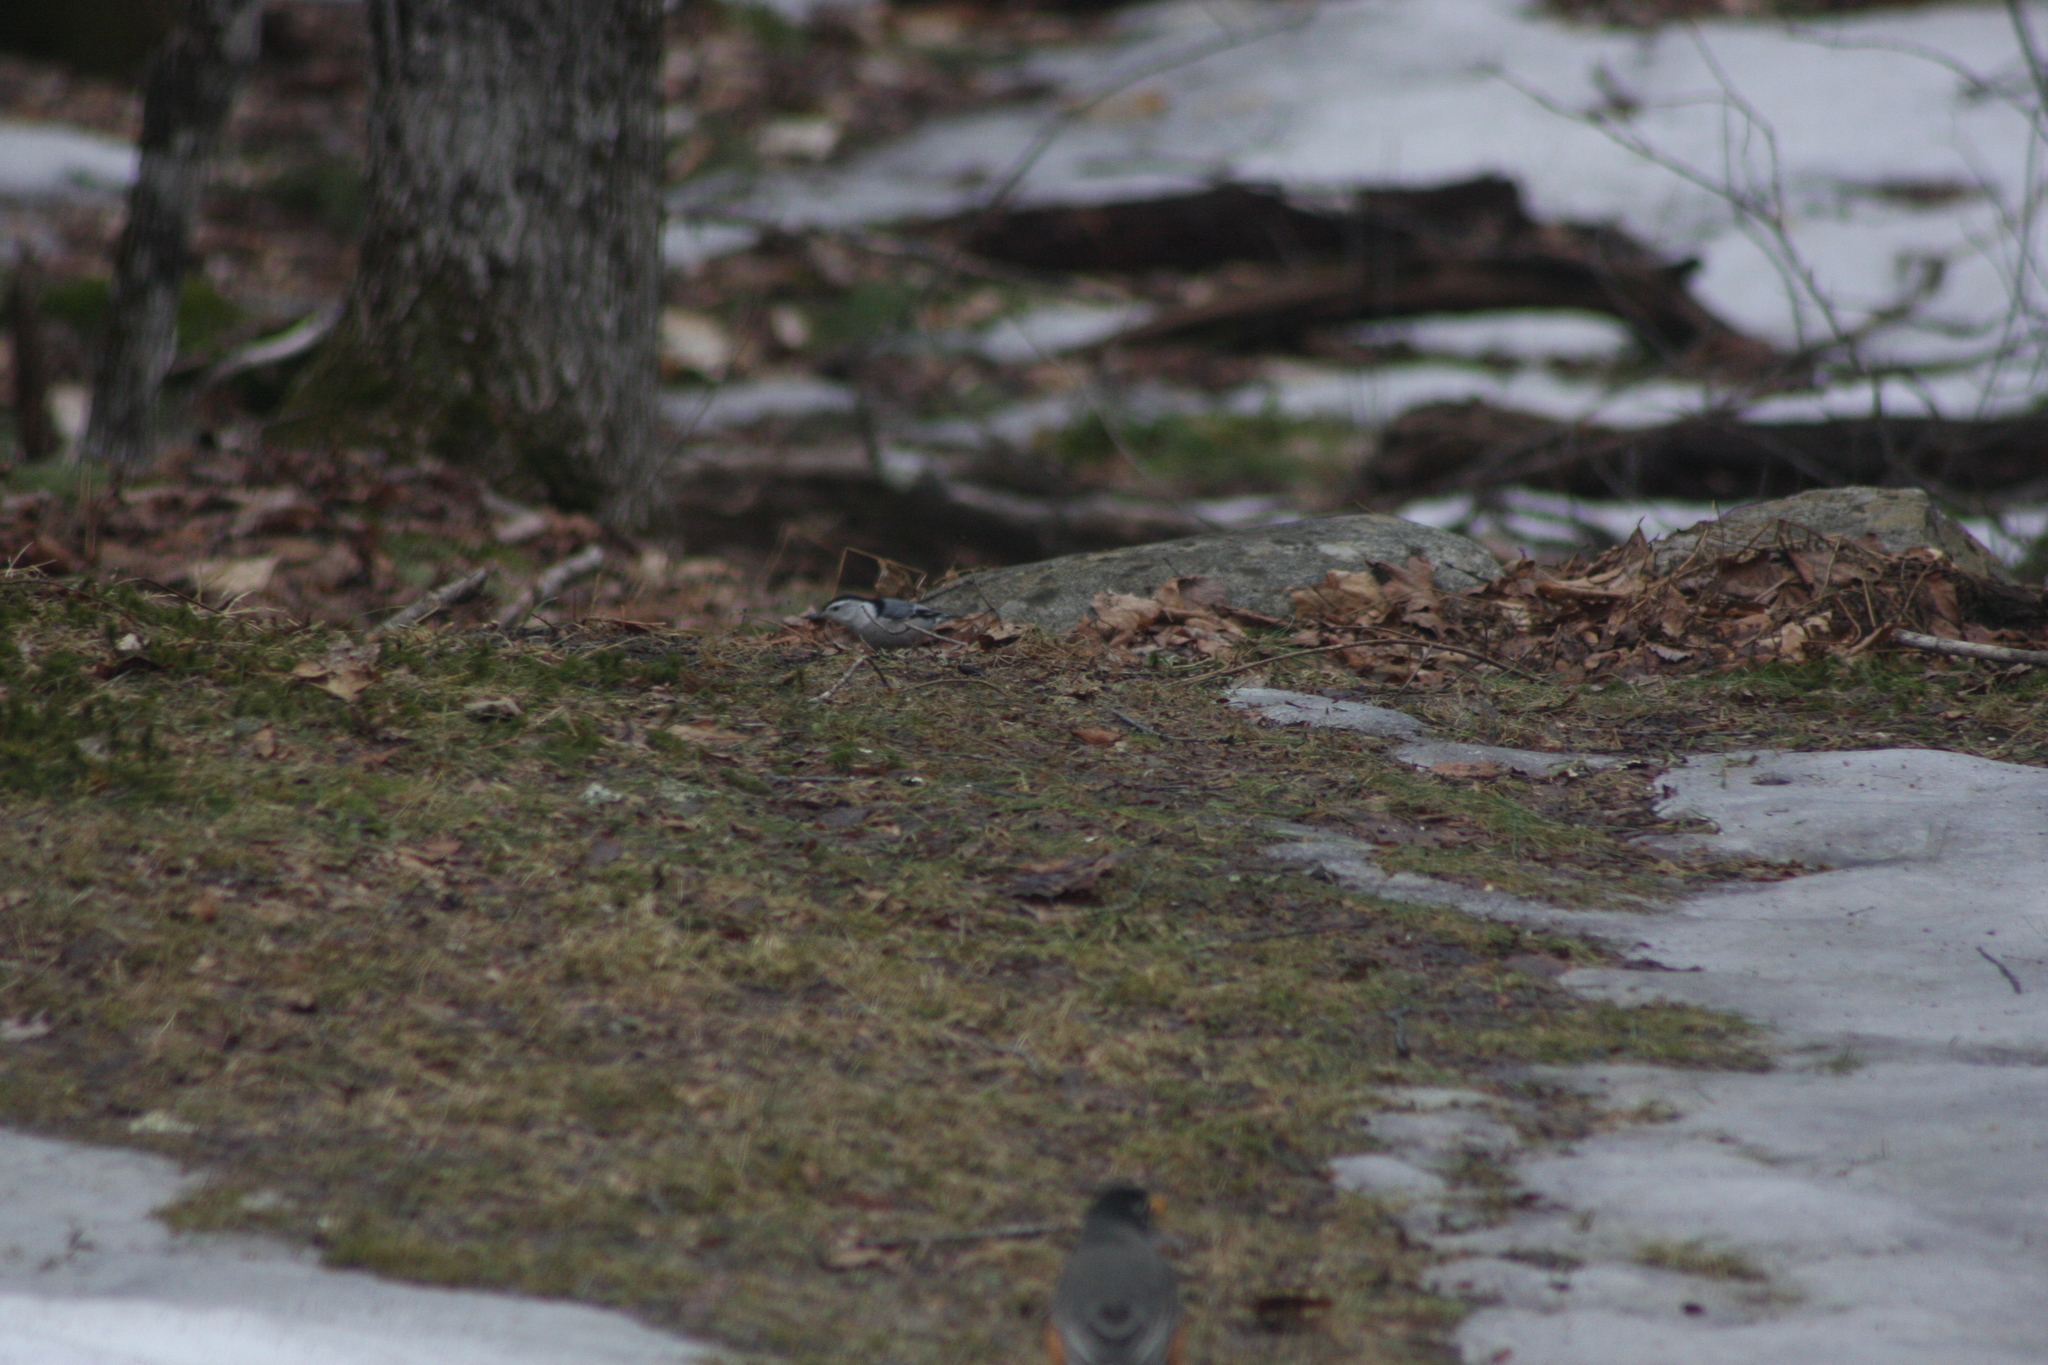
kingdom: Animalia
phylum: Chordata
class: Aves
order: Passeriformes
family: Sittidae
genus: Sitta
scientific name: Sitta carolinensis
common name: White-breasted nuthatch
